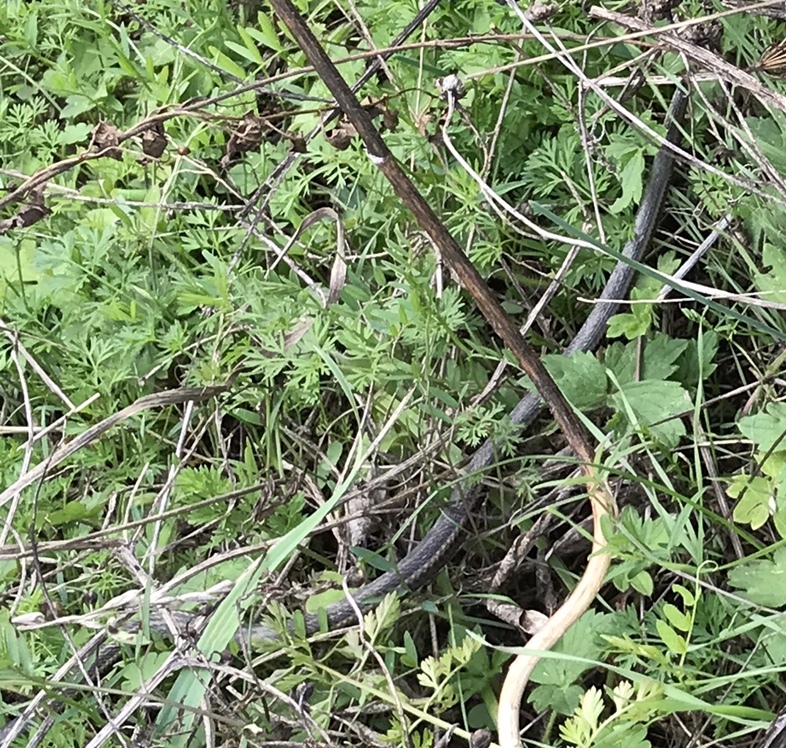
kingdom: Animalia
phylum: Chordata
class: Squamata
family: Colubridae
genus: Thamnophis
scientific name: Thamnophis ordinoides
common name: Northwestern garter snake
